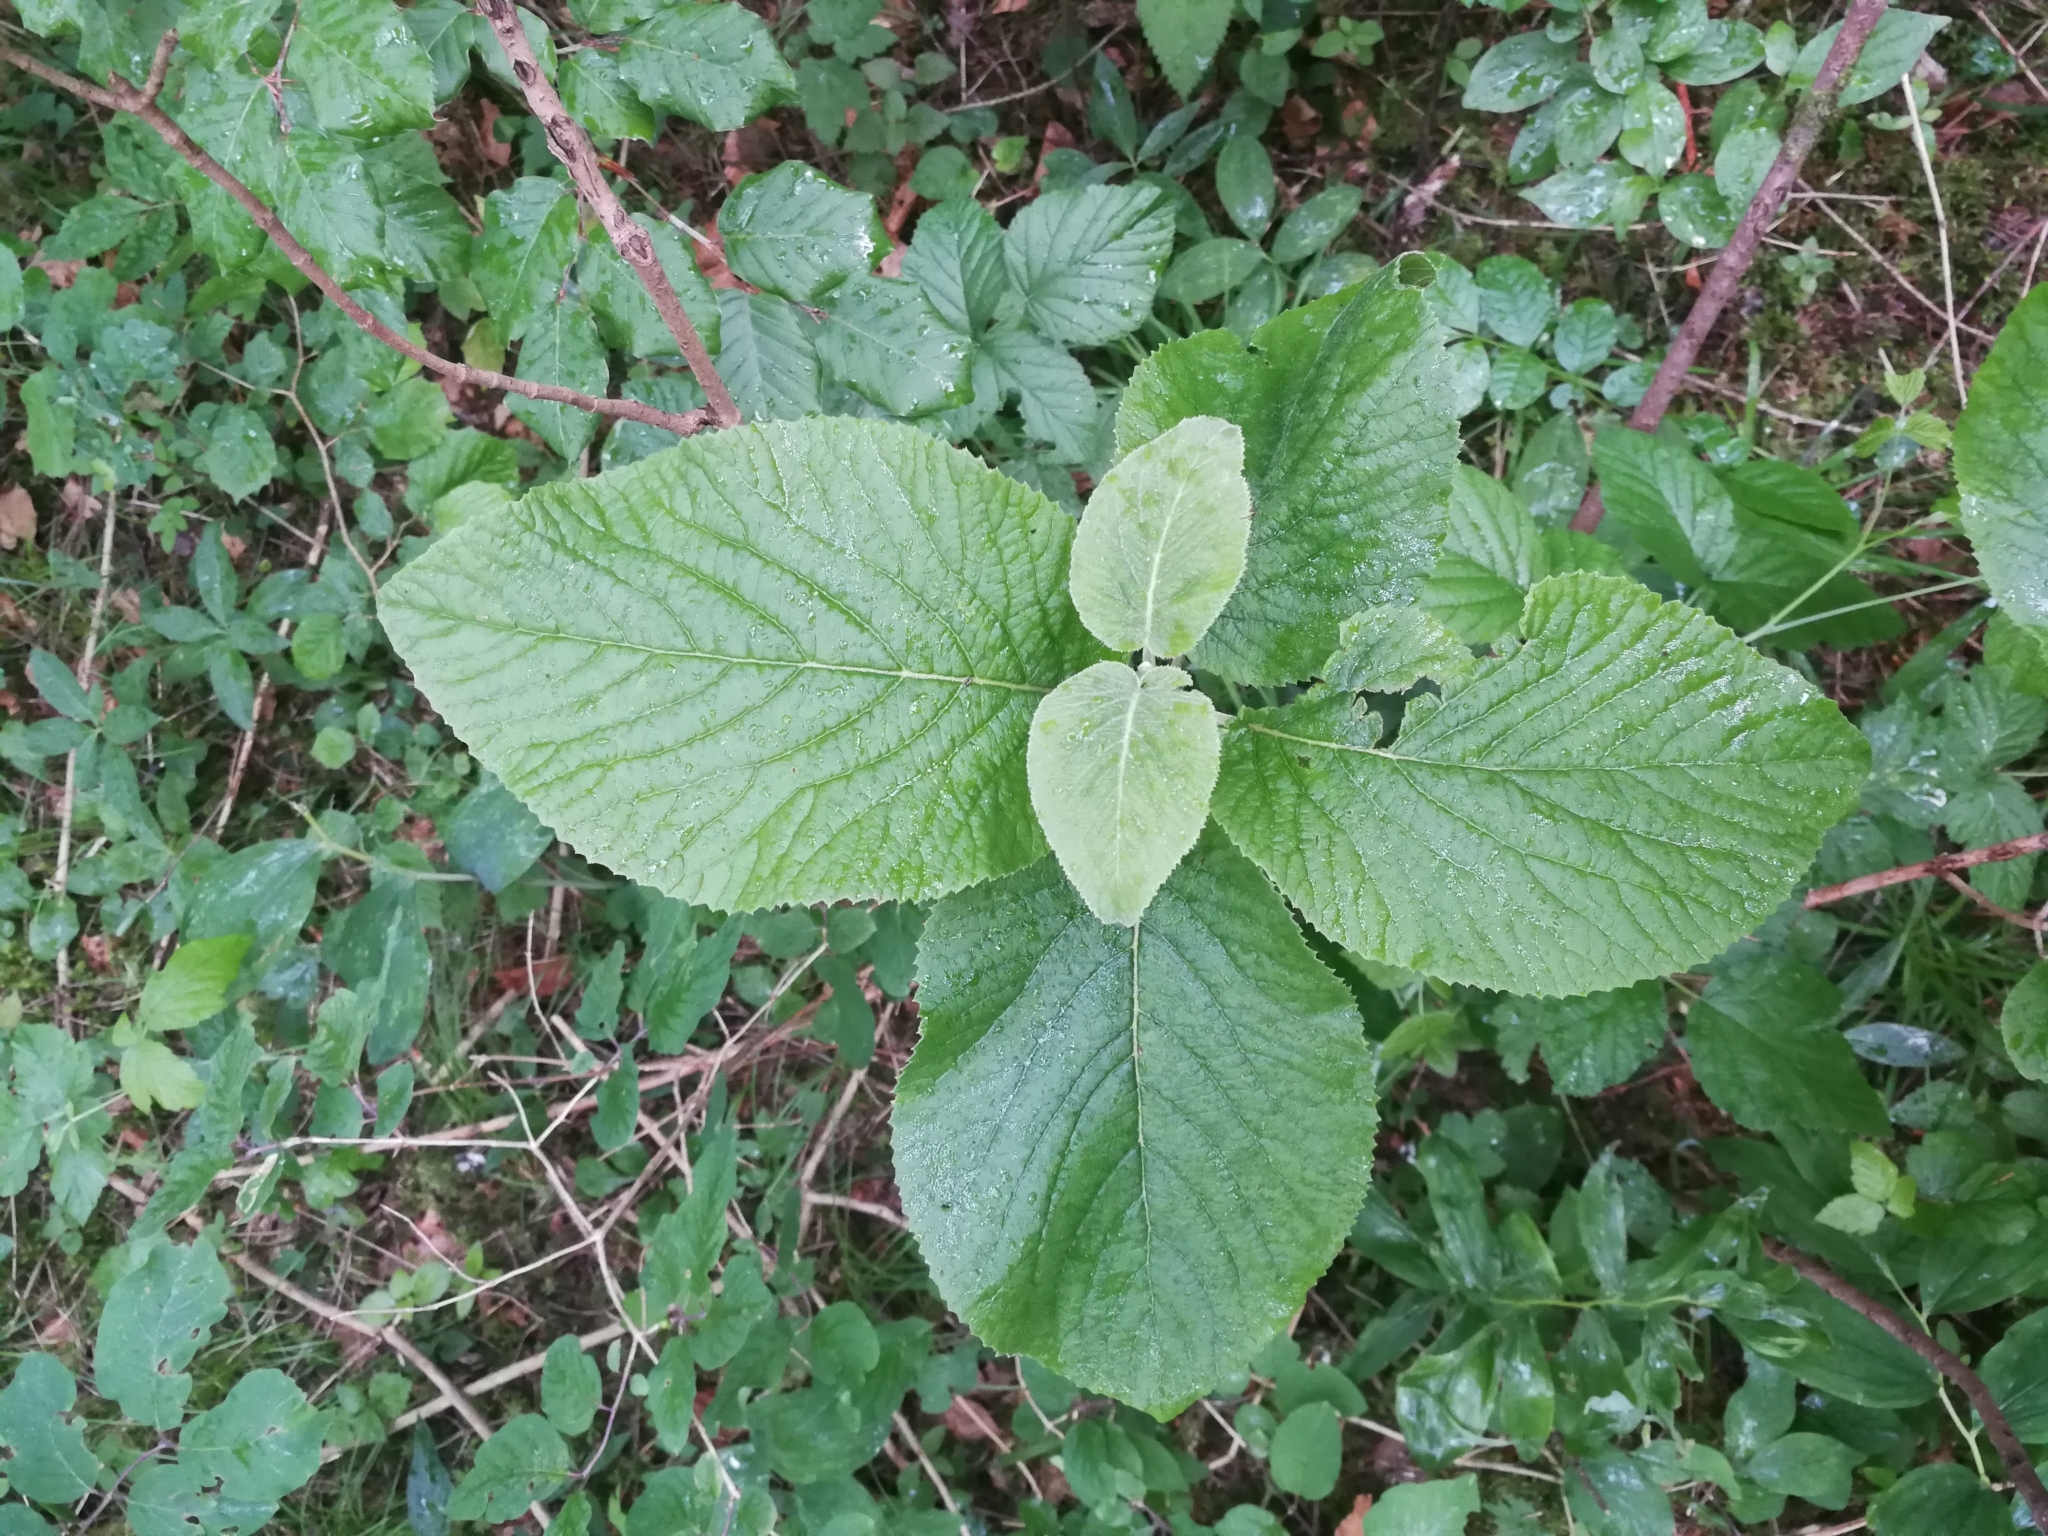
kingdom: Plantae
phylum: Tracheophyta
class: Magnoliopsida
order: Dipsacales
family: Viburnaceae
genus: Viburnum
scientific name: Viburnum lantana
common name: Wayfaring tree
